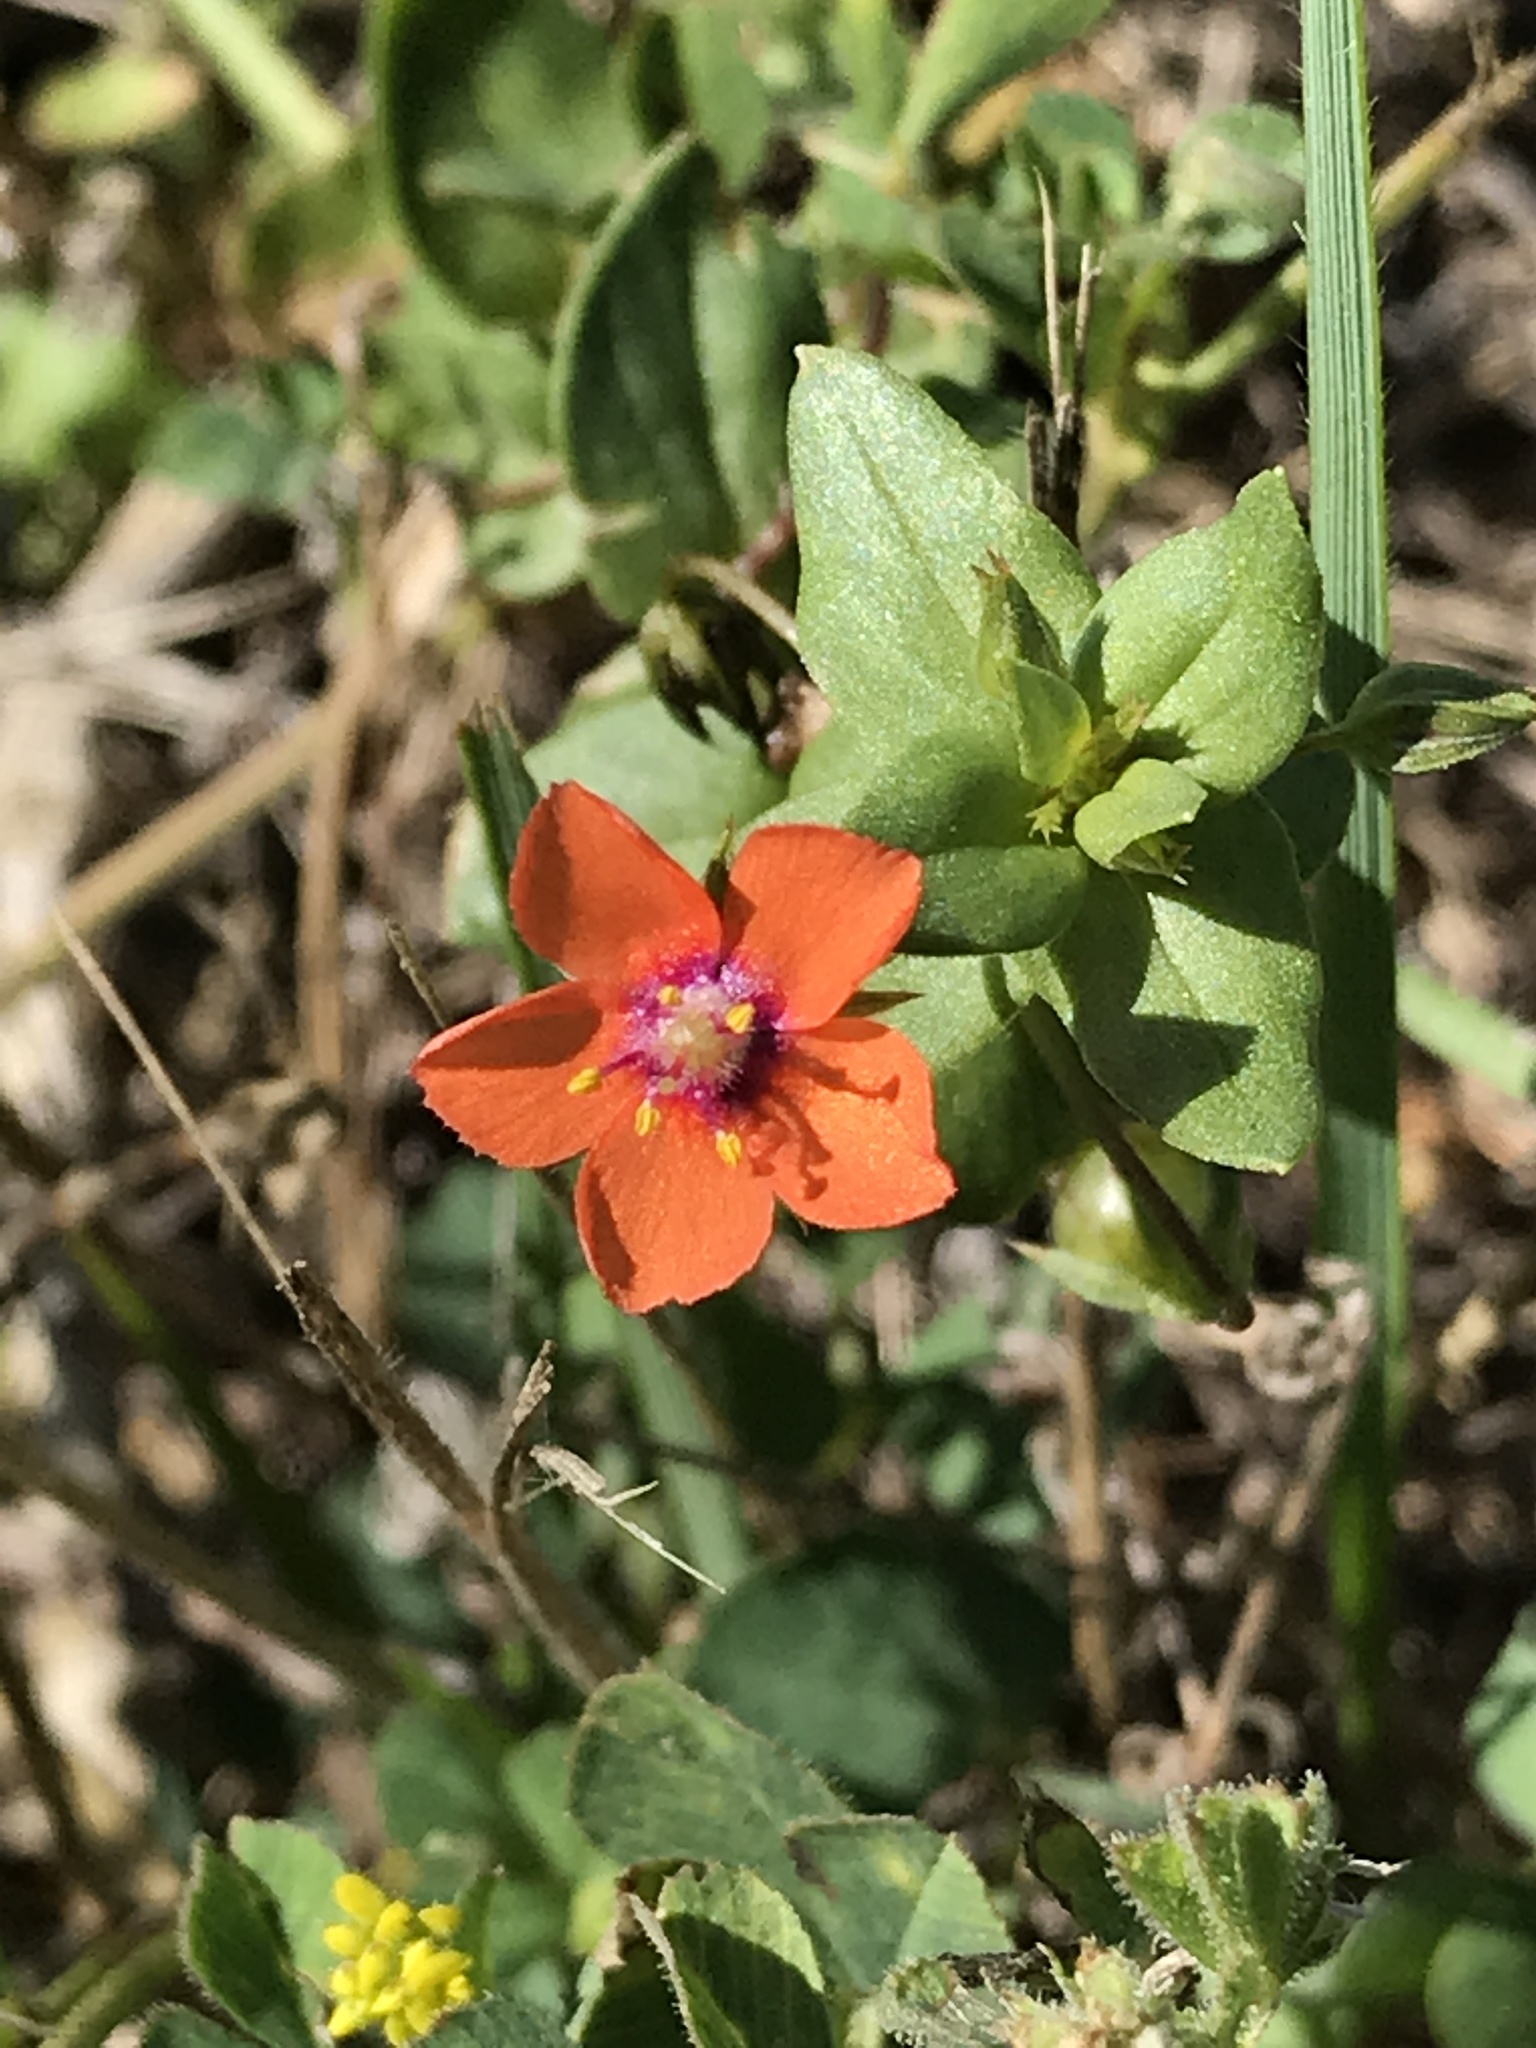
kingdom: Plantae
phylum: Tracheophyta
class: Magnoliopsida
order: Ericales
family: Primulaceae
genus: Lysimachia
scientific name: Lysimachia arvensis
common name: Scarlet pimpernel
